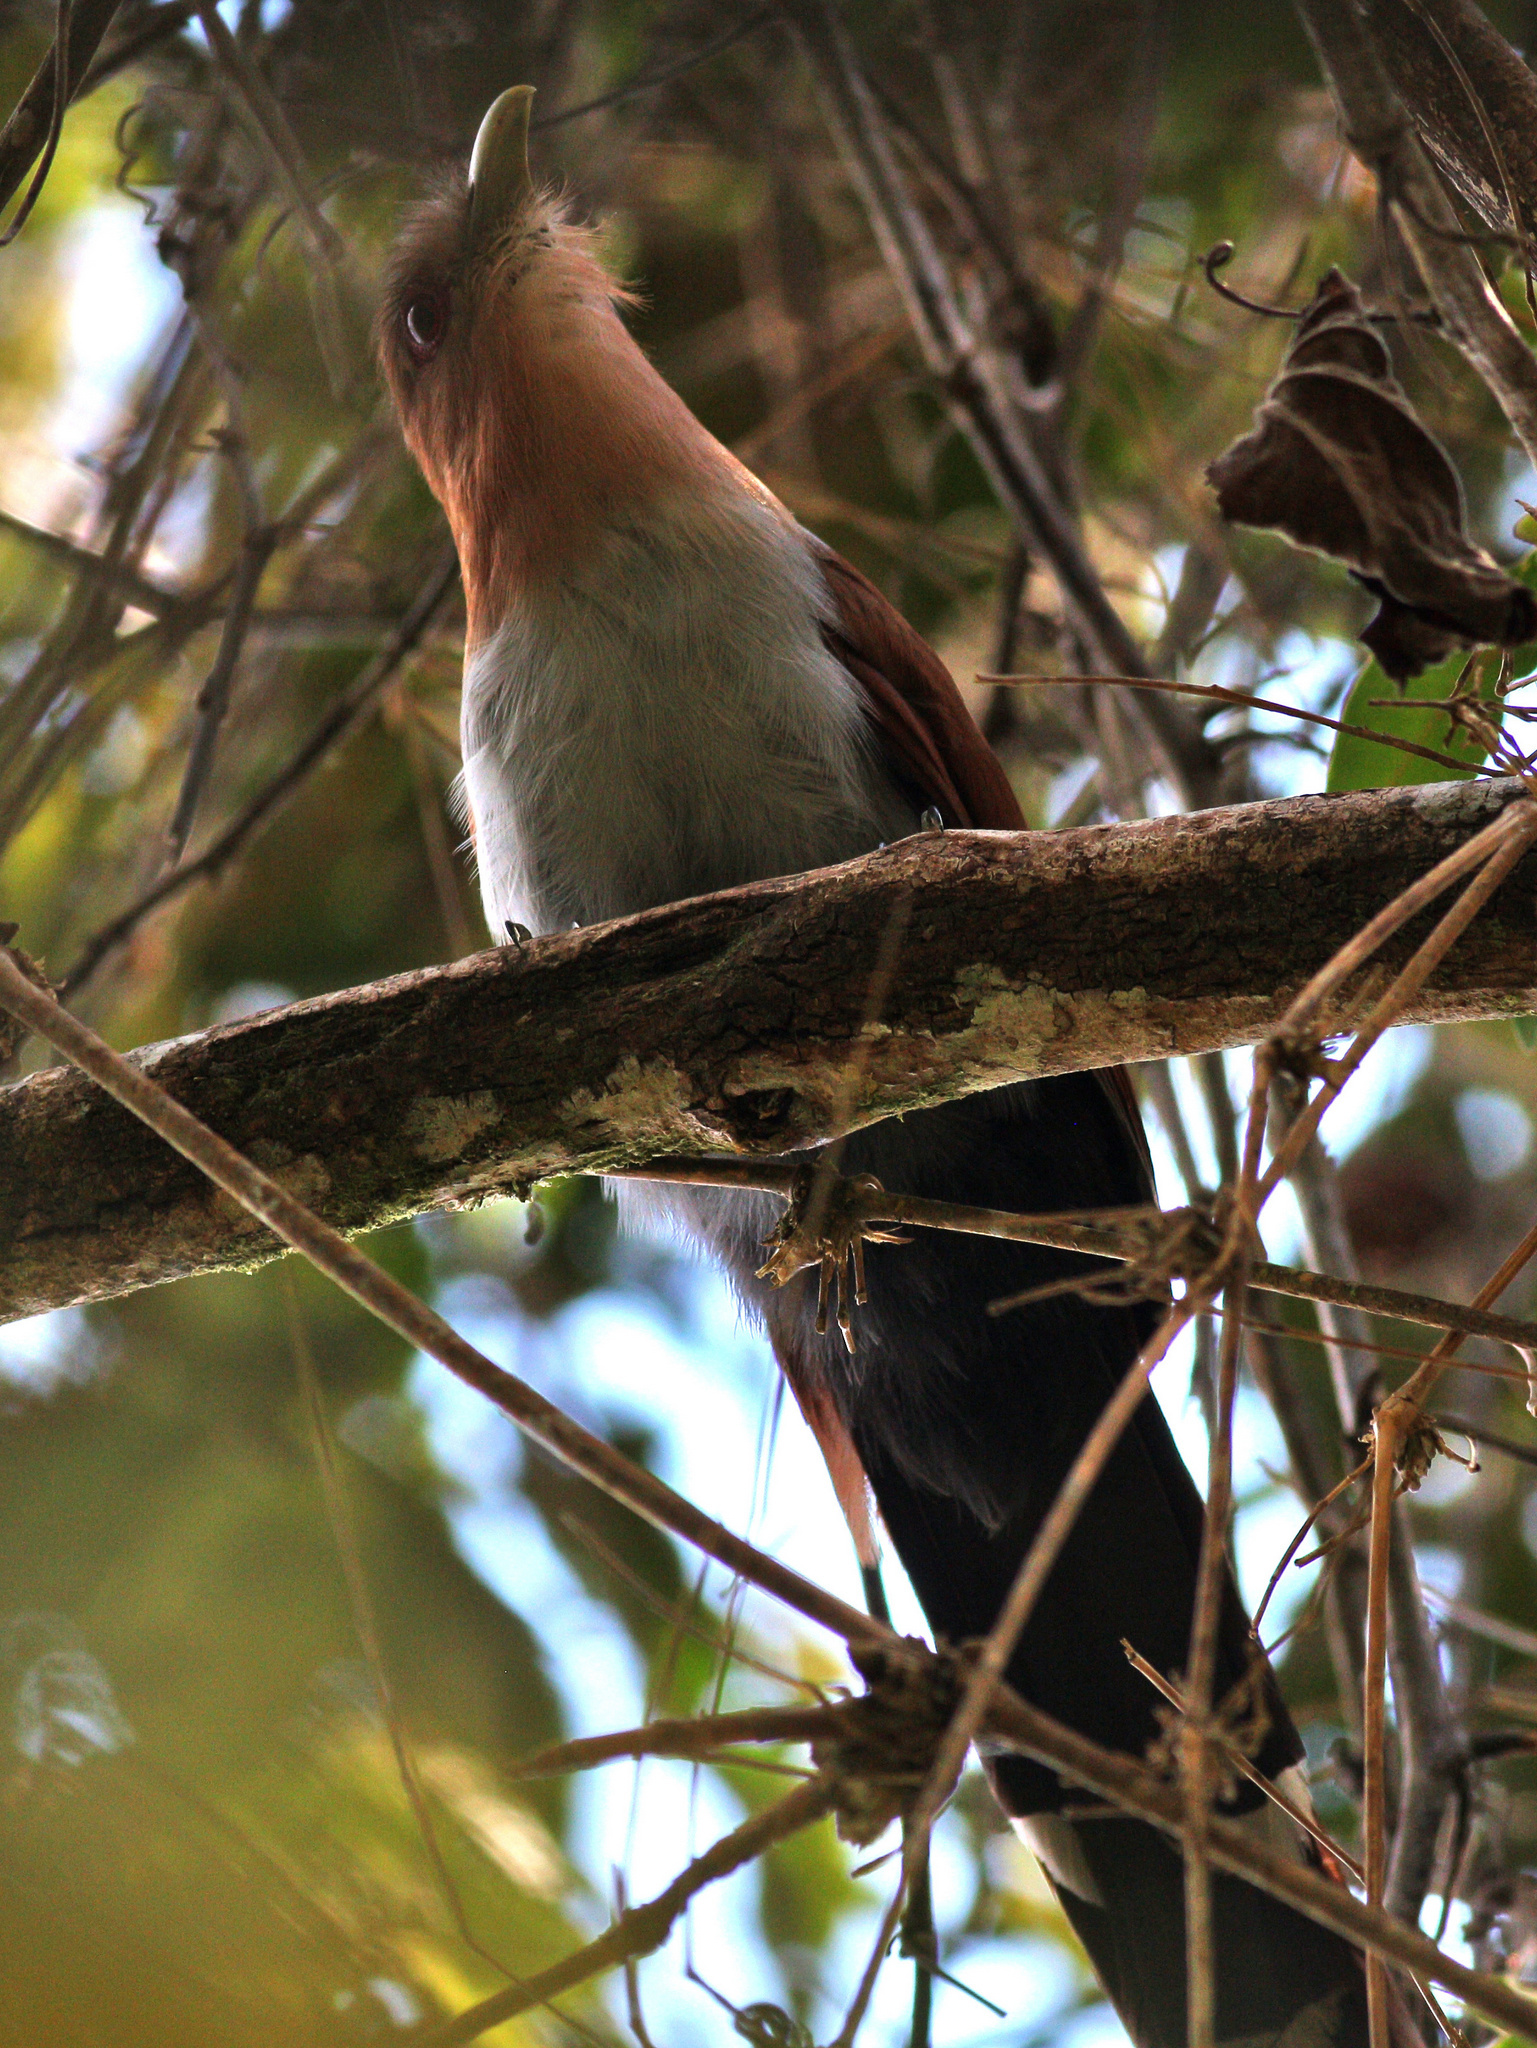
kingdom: Animalia
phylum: Chordata
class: Aves
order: Cuculiformes
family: Cuculidae
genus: Piaya
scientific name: Piaya cayana
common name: Squirrel cuckoo
